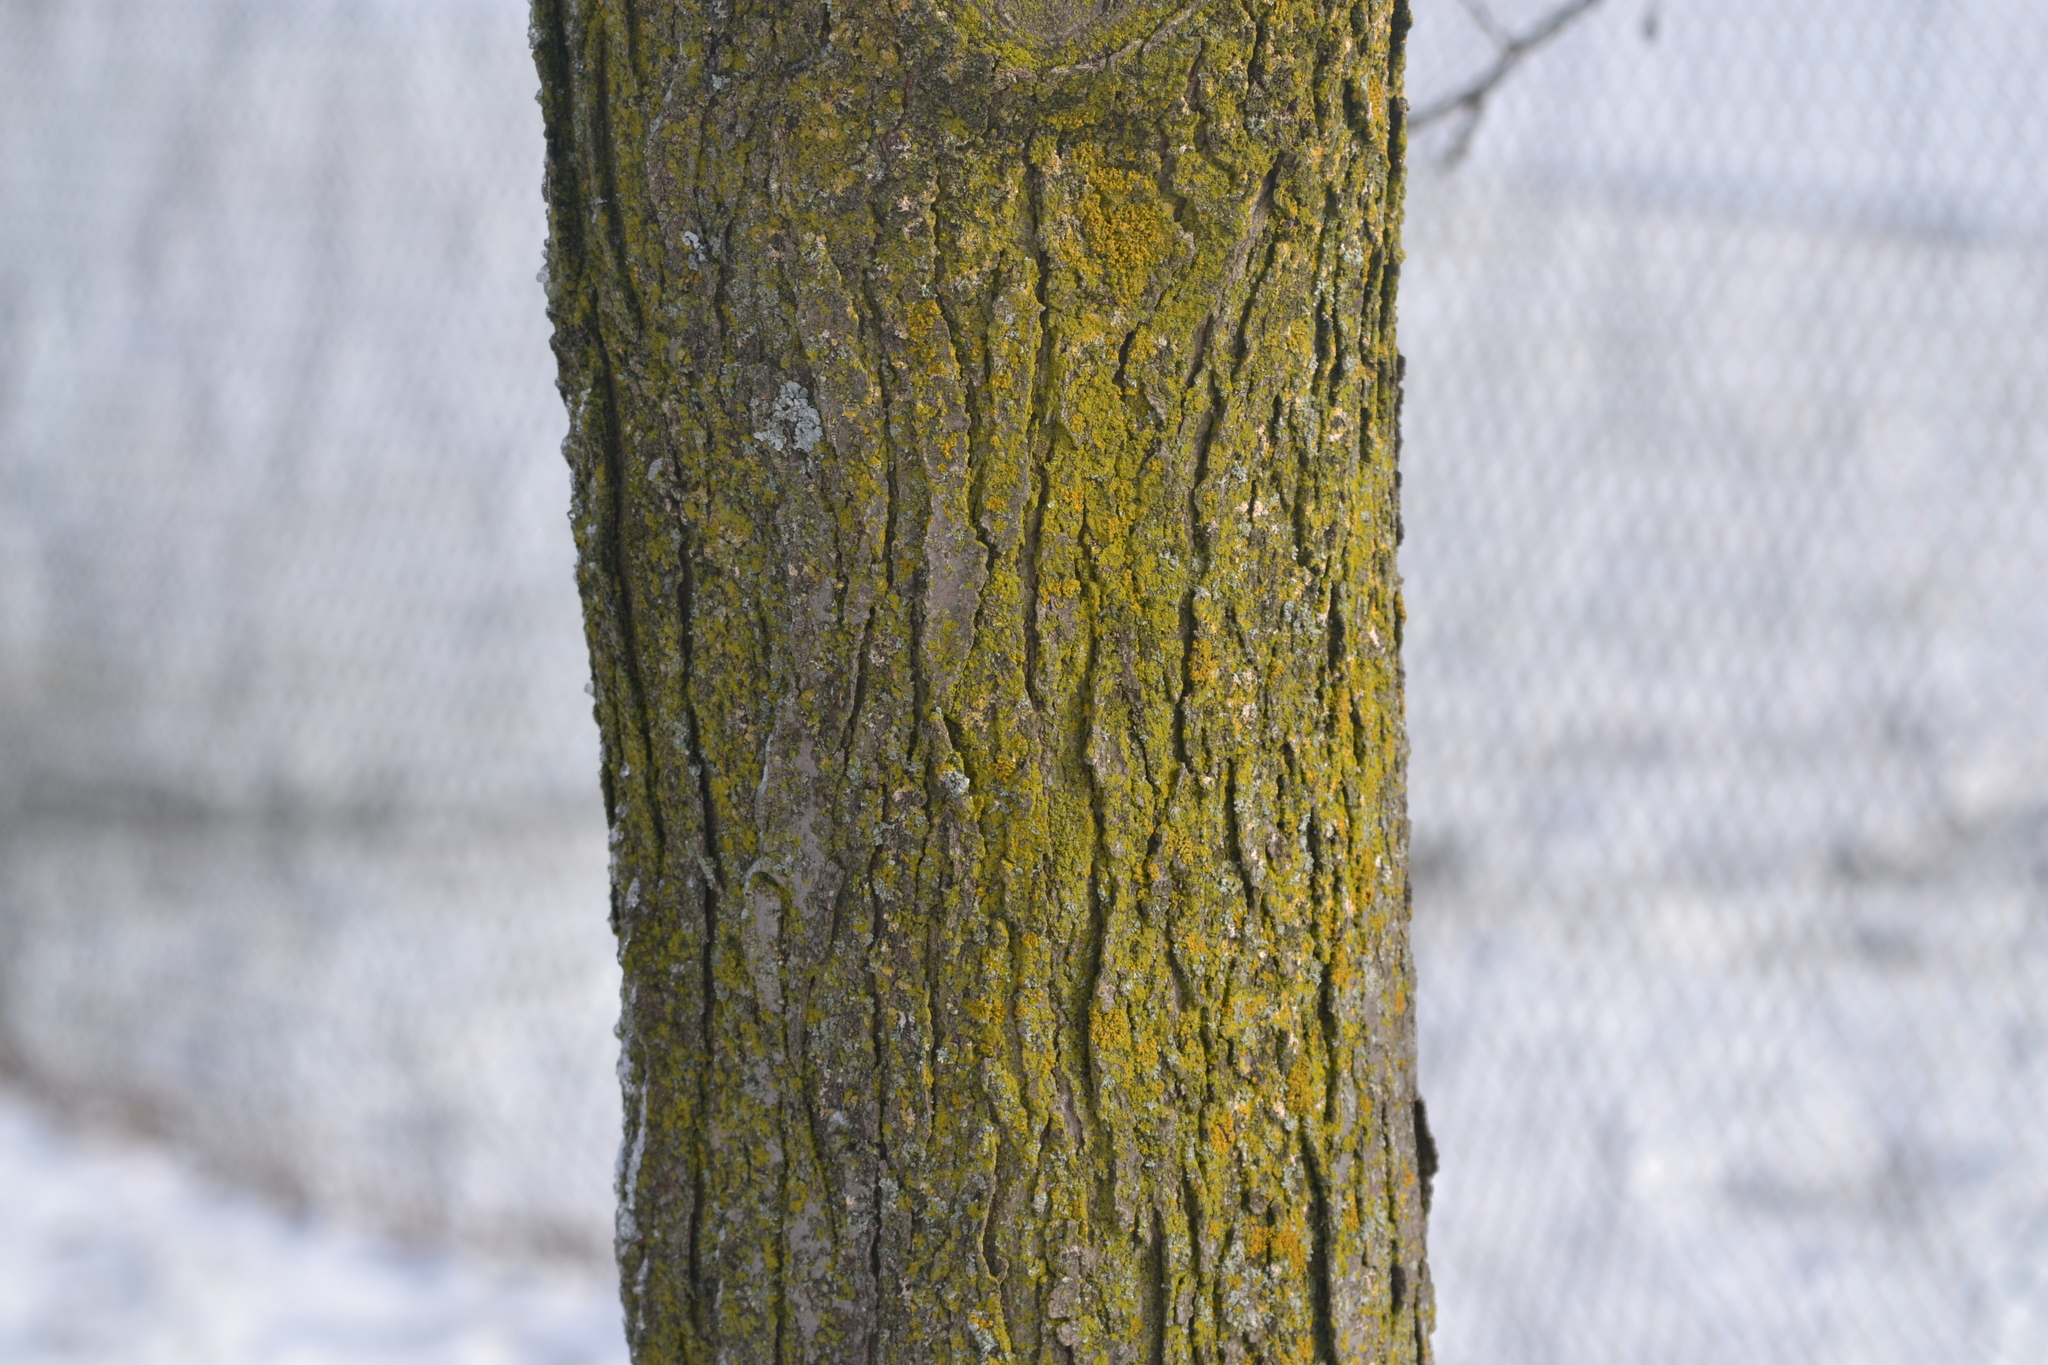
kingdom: Fungi
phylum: Ascomycota
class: Candelariomycetes
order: Candelariales
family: Candelariaceae
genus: Candelaria
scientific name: Candelaria concolor
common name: Candleflame lichen
